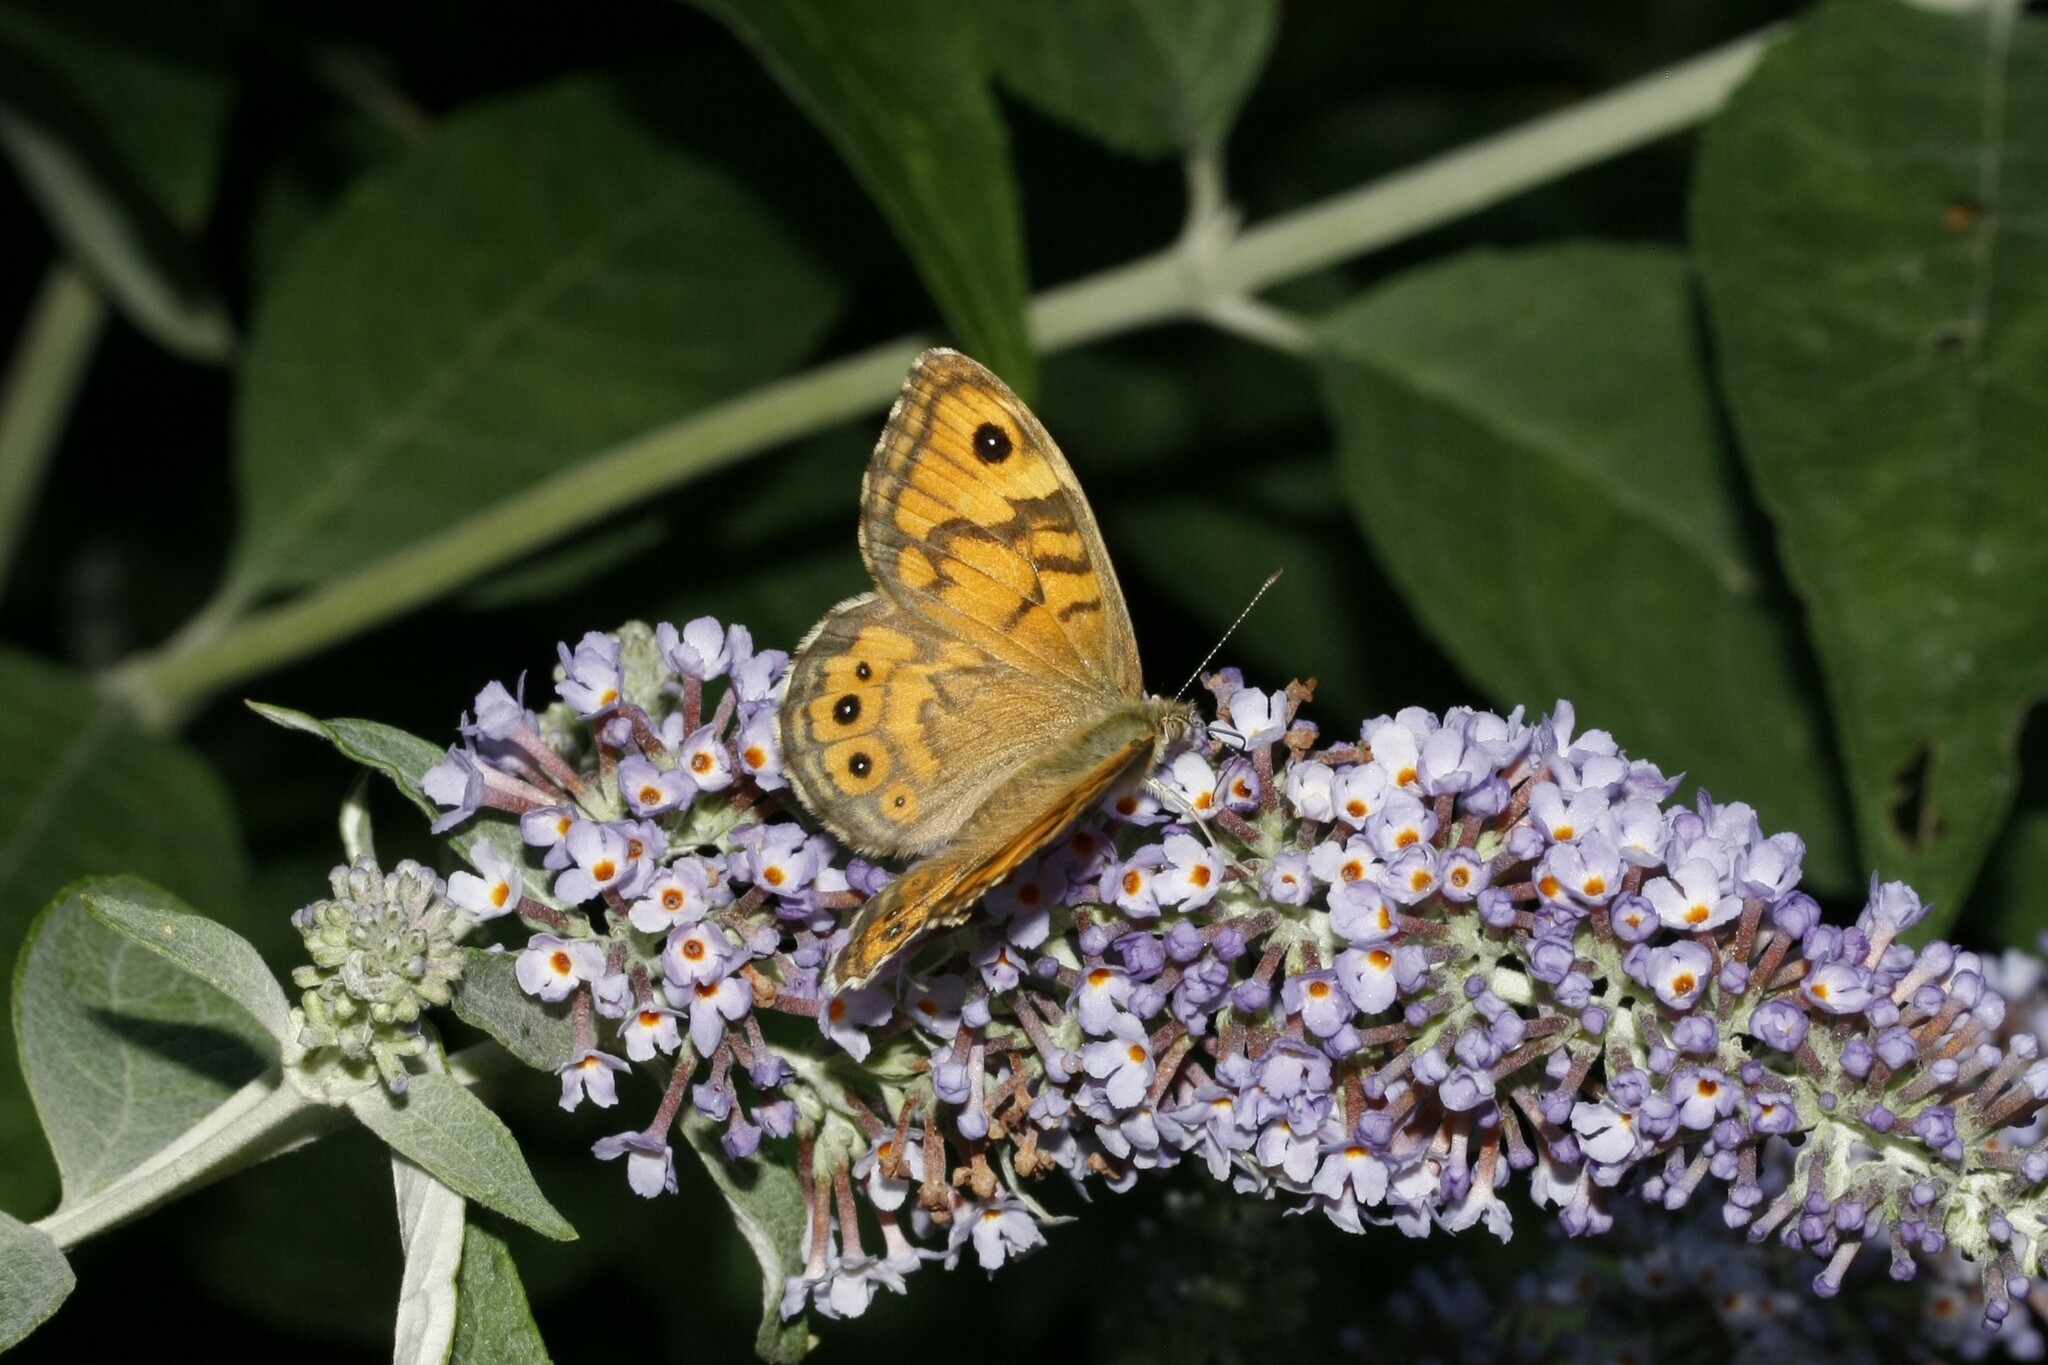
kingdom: Animalia
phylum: Arthropoda
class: Insecta
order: Lepidoptera
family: Nymphalidae
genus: Pararge
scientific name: Pararge Lasiommata megera
